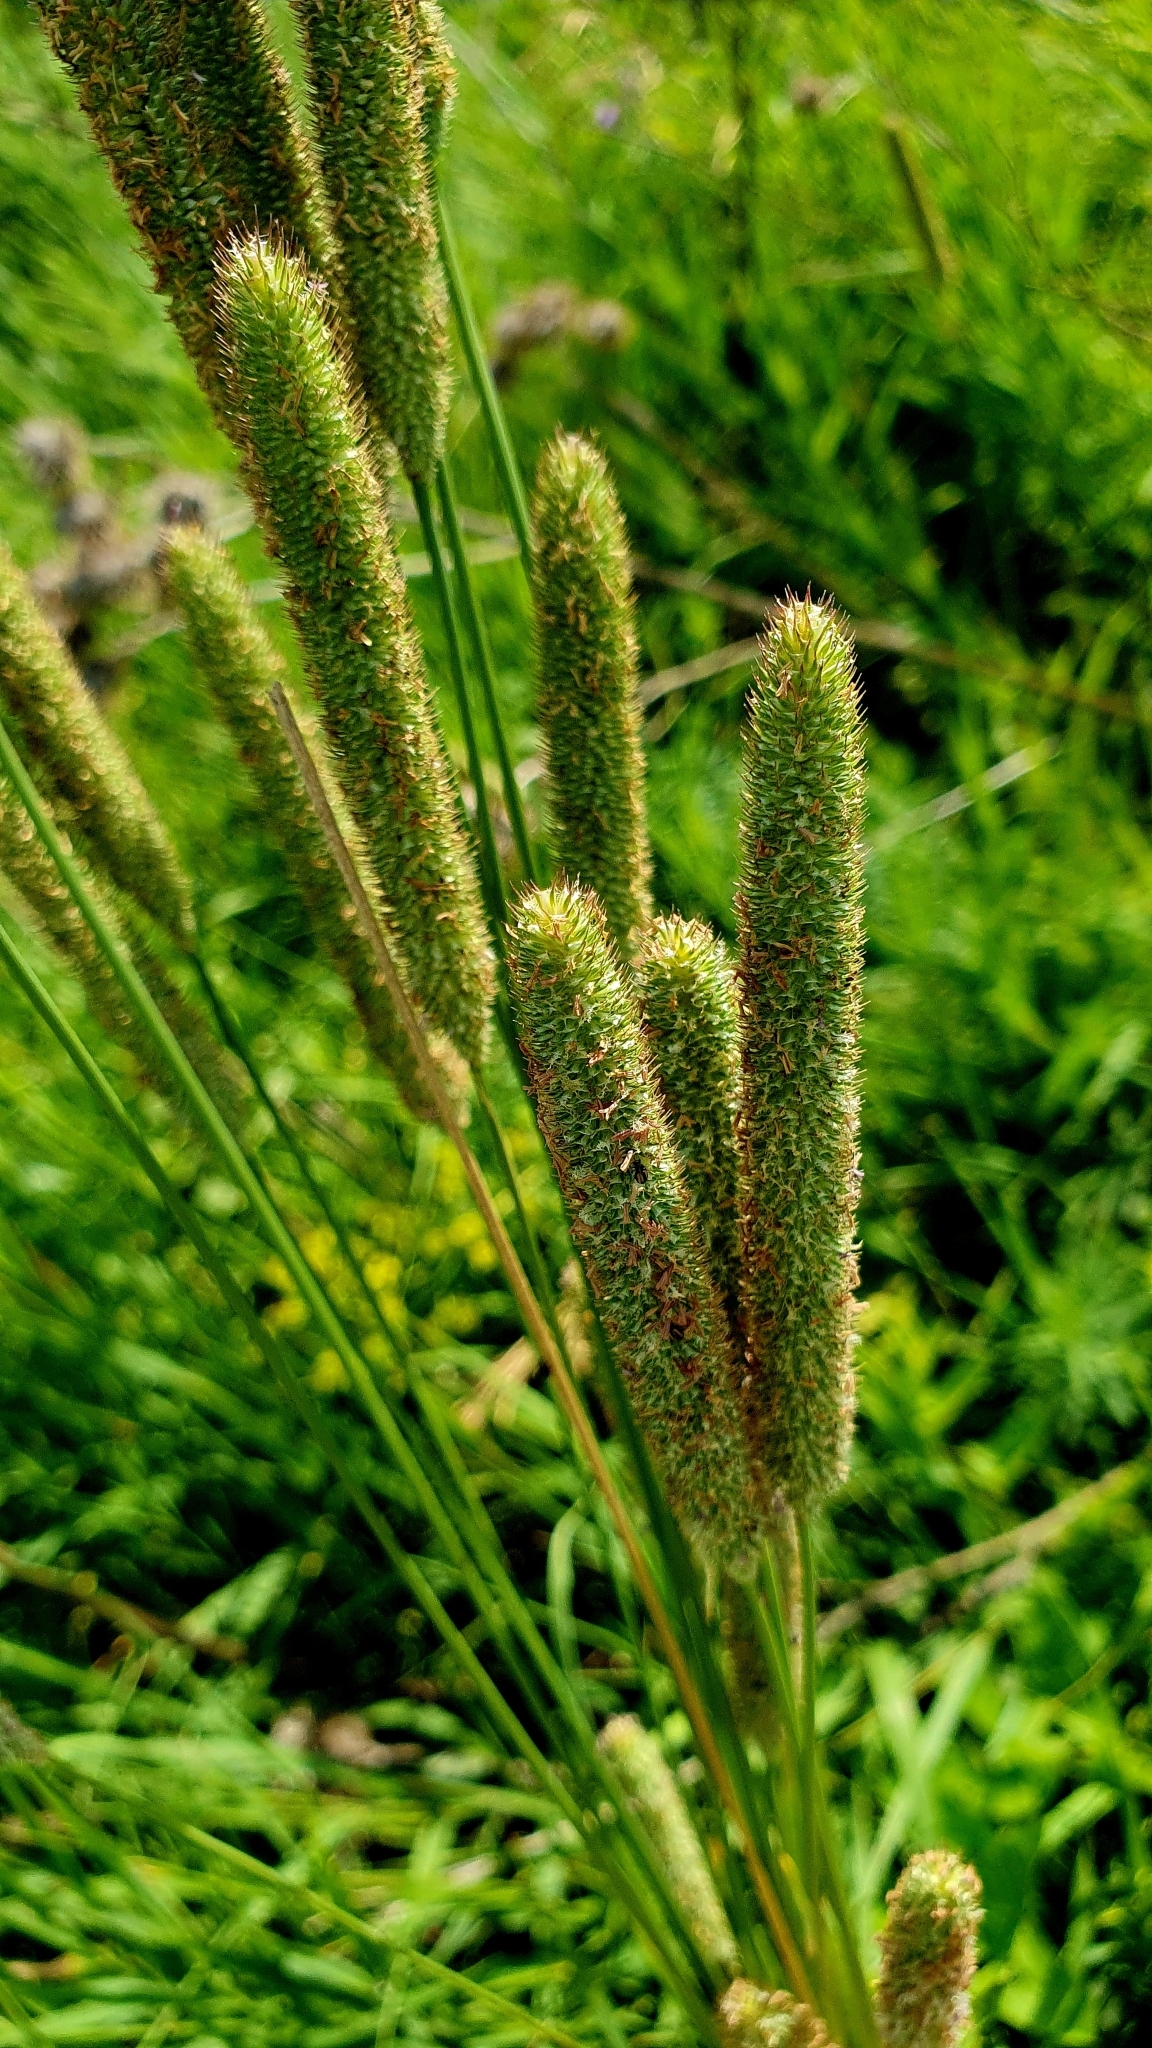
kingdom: Plantae
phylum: Tracheophyta
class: Liliopsida
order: Poales
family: Poaceae
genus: Phleum
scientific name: Phleum pratense
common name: Timothy grass
